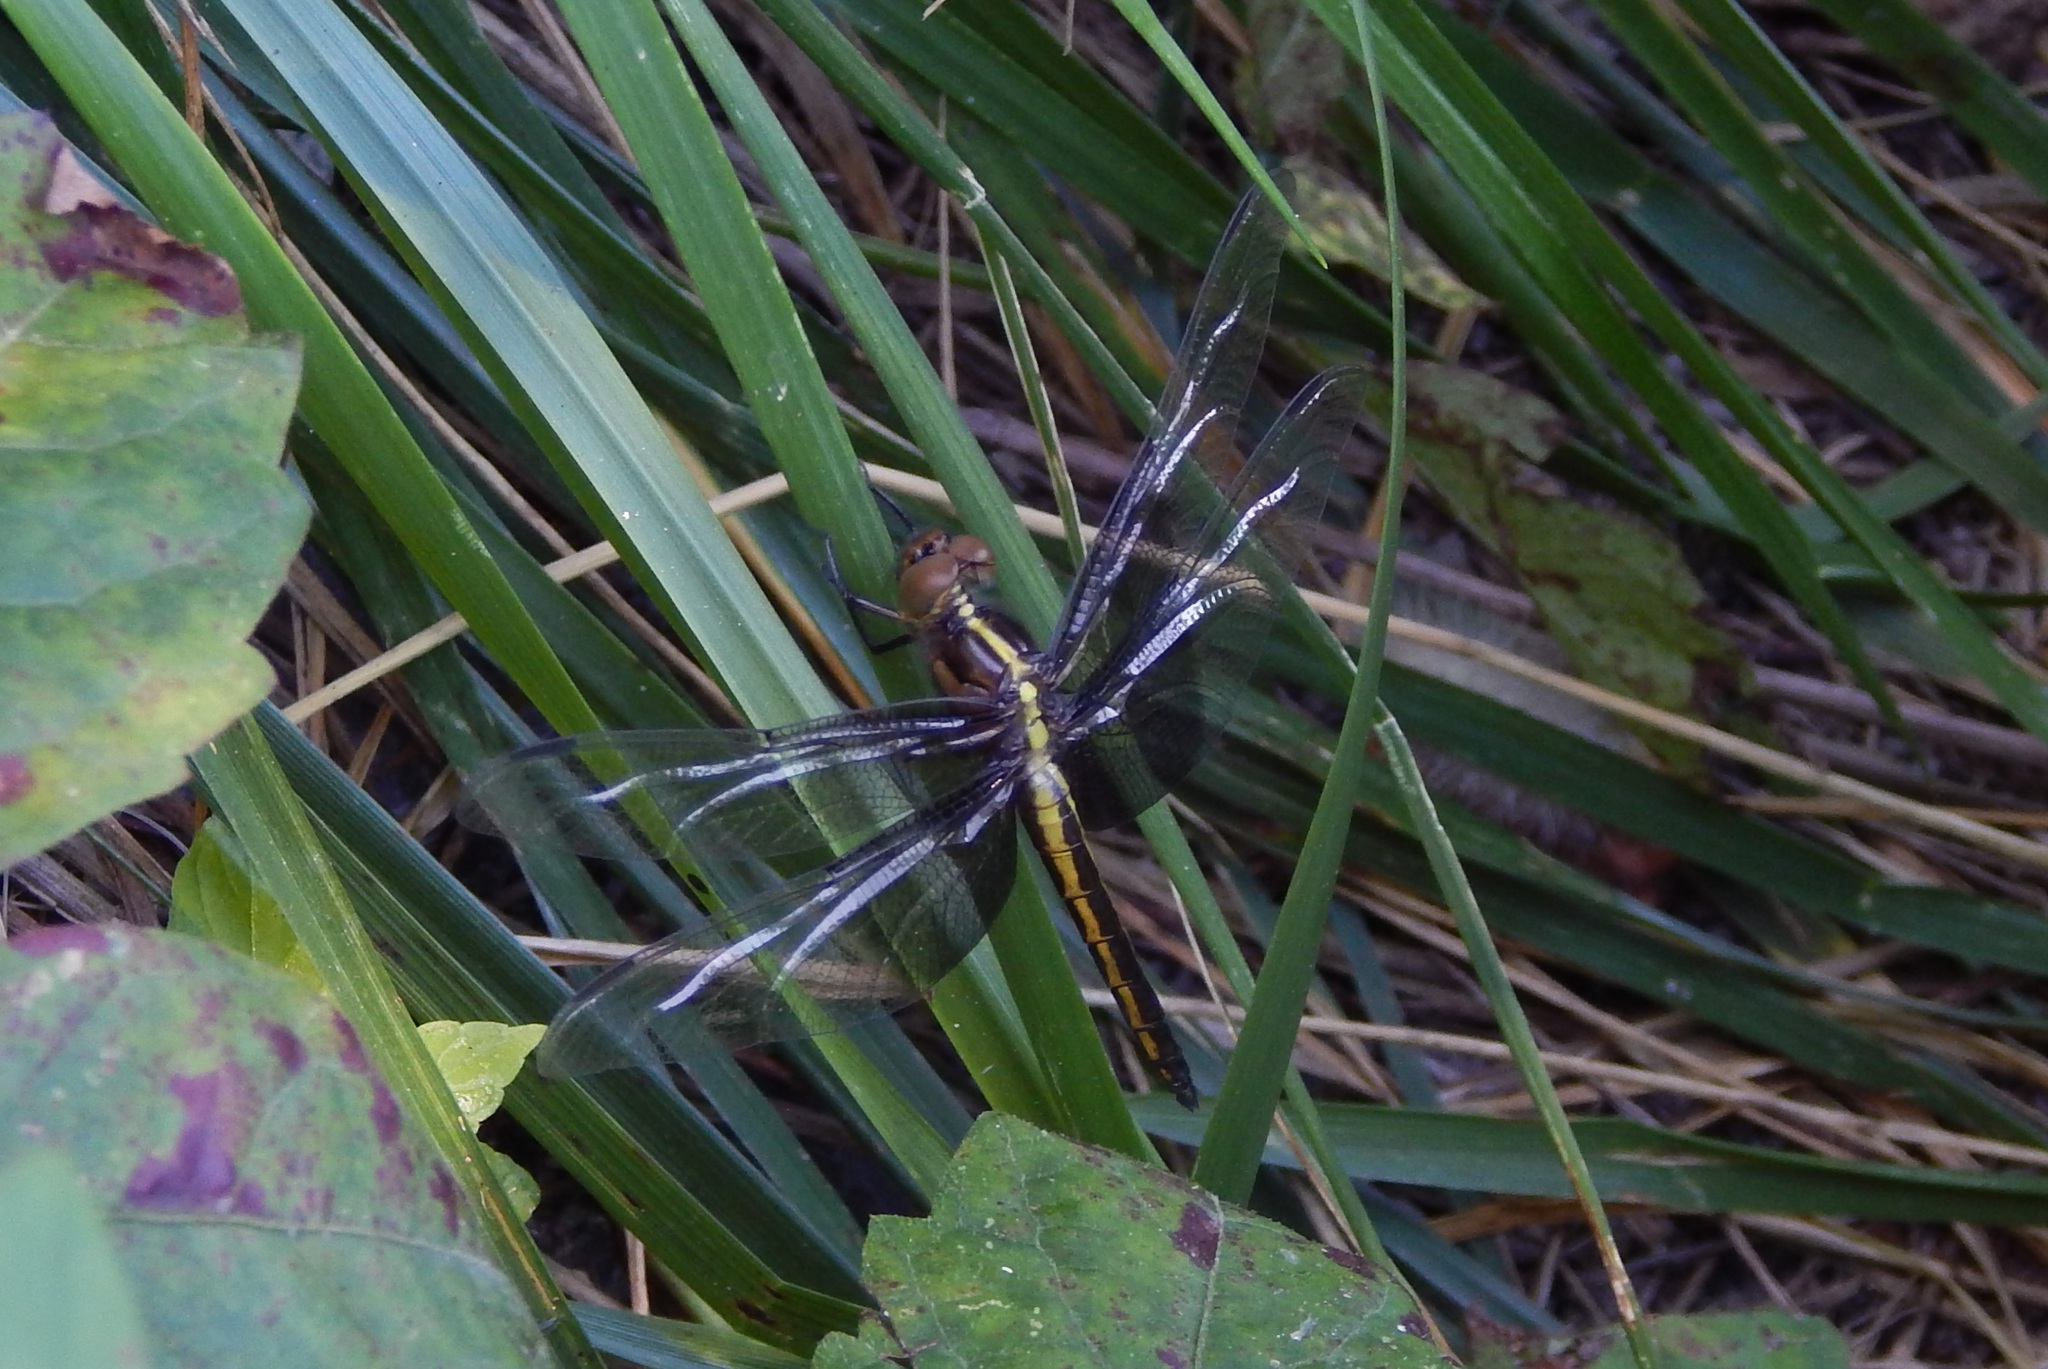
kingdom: Animalia
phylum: Arthropoda
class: Insecta
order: Odonata
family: Libellulidae
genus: Libellula
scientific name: Libellula luctuosa
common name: Widow skimmer
